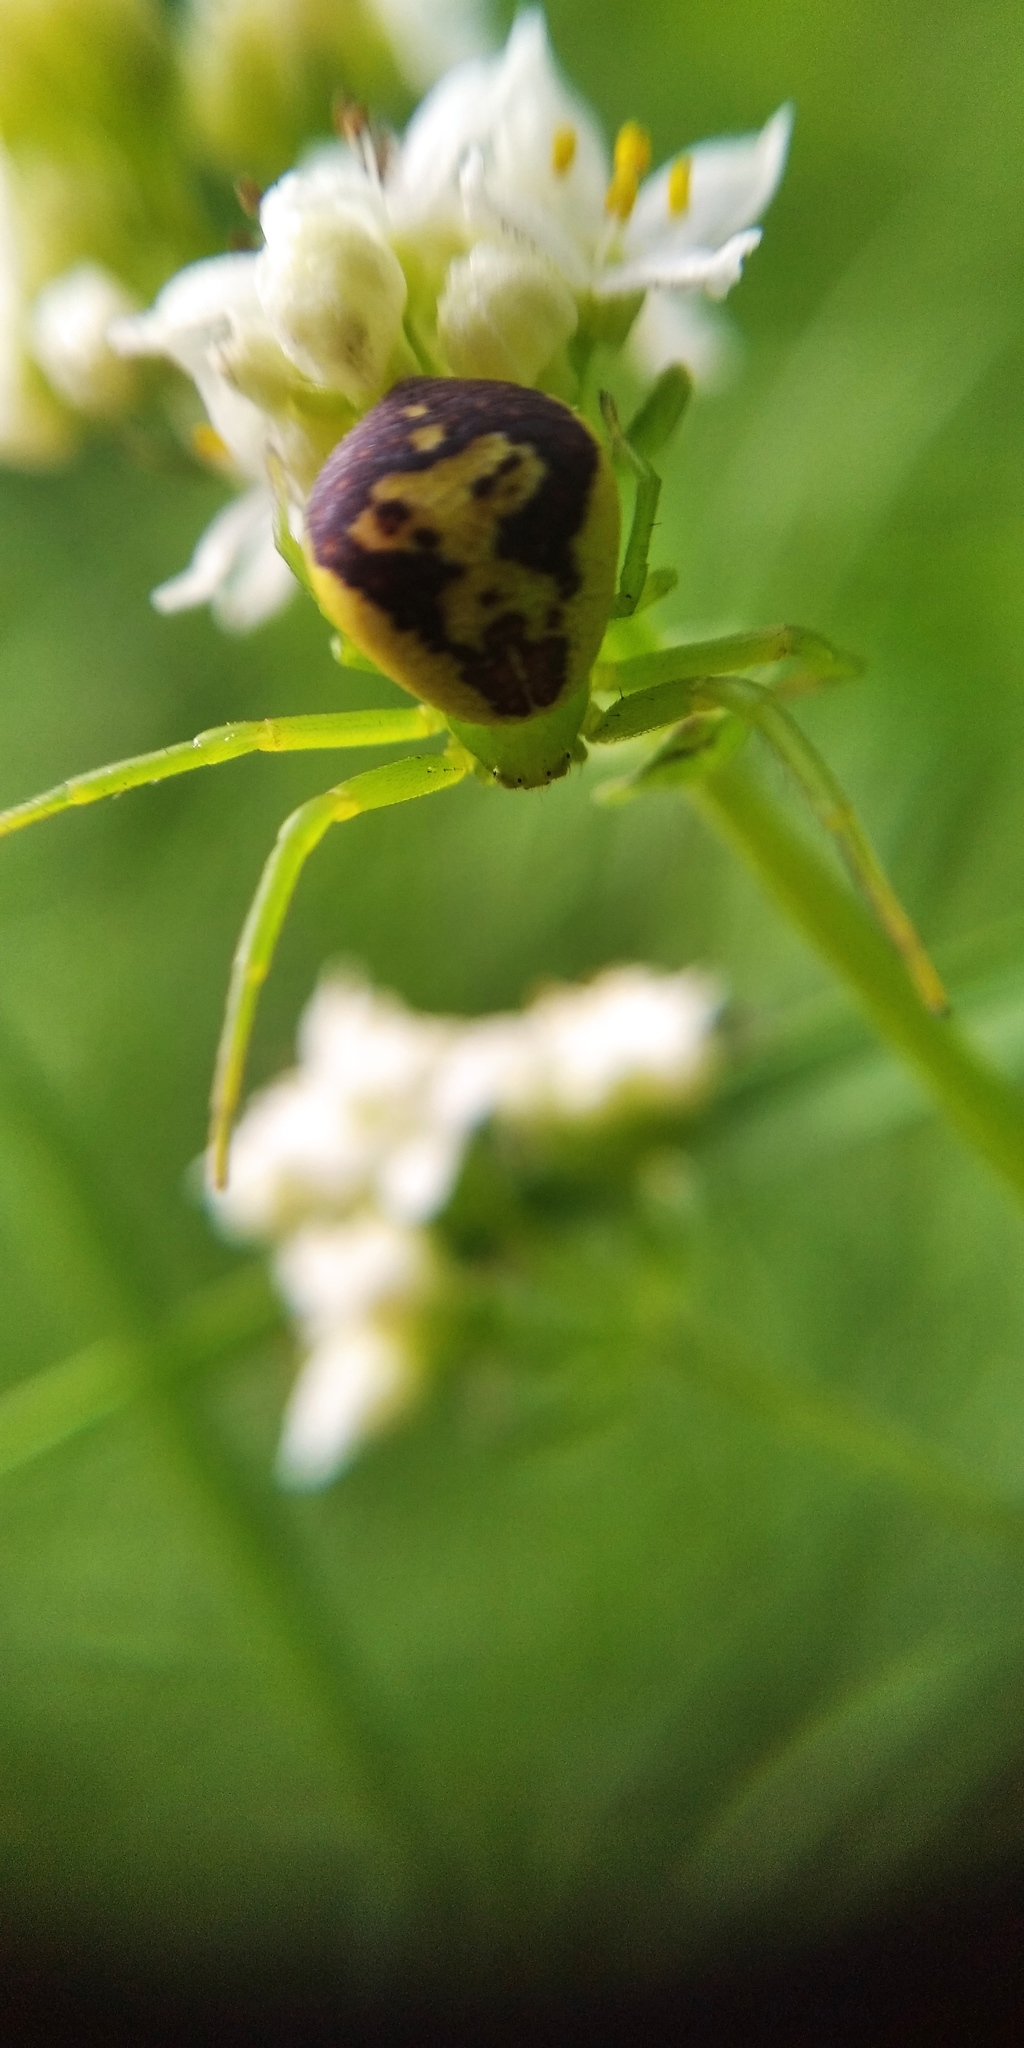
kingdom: Animalia
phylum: Arthropoda
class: Arachnida
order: Araneae
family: Thomisidae
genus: Ebrechtella
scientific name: Ebrechtella tricuspidata
